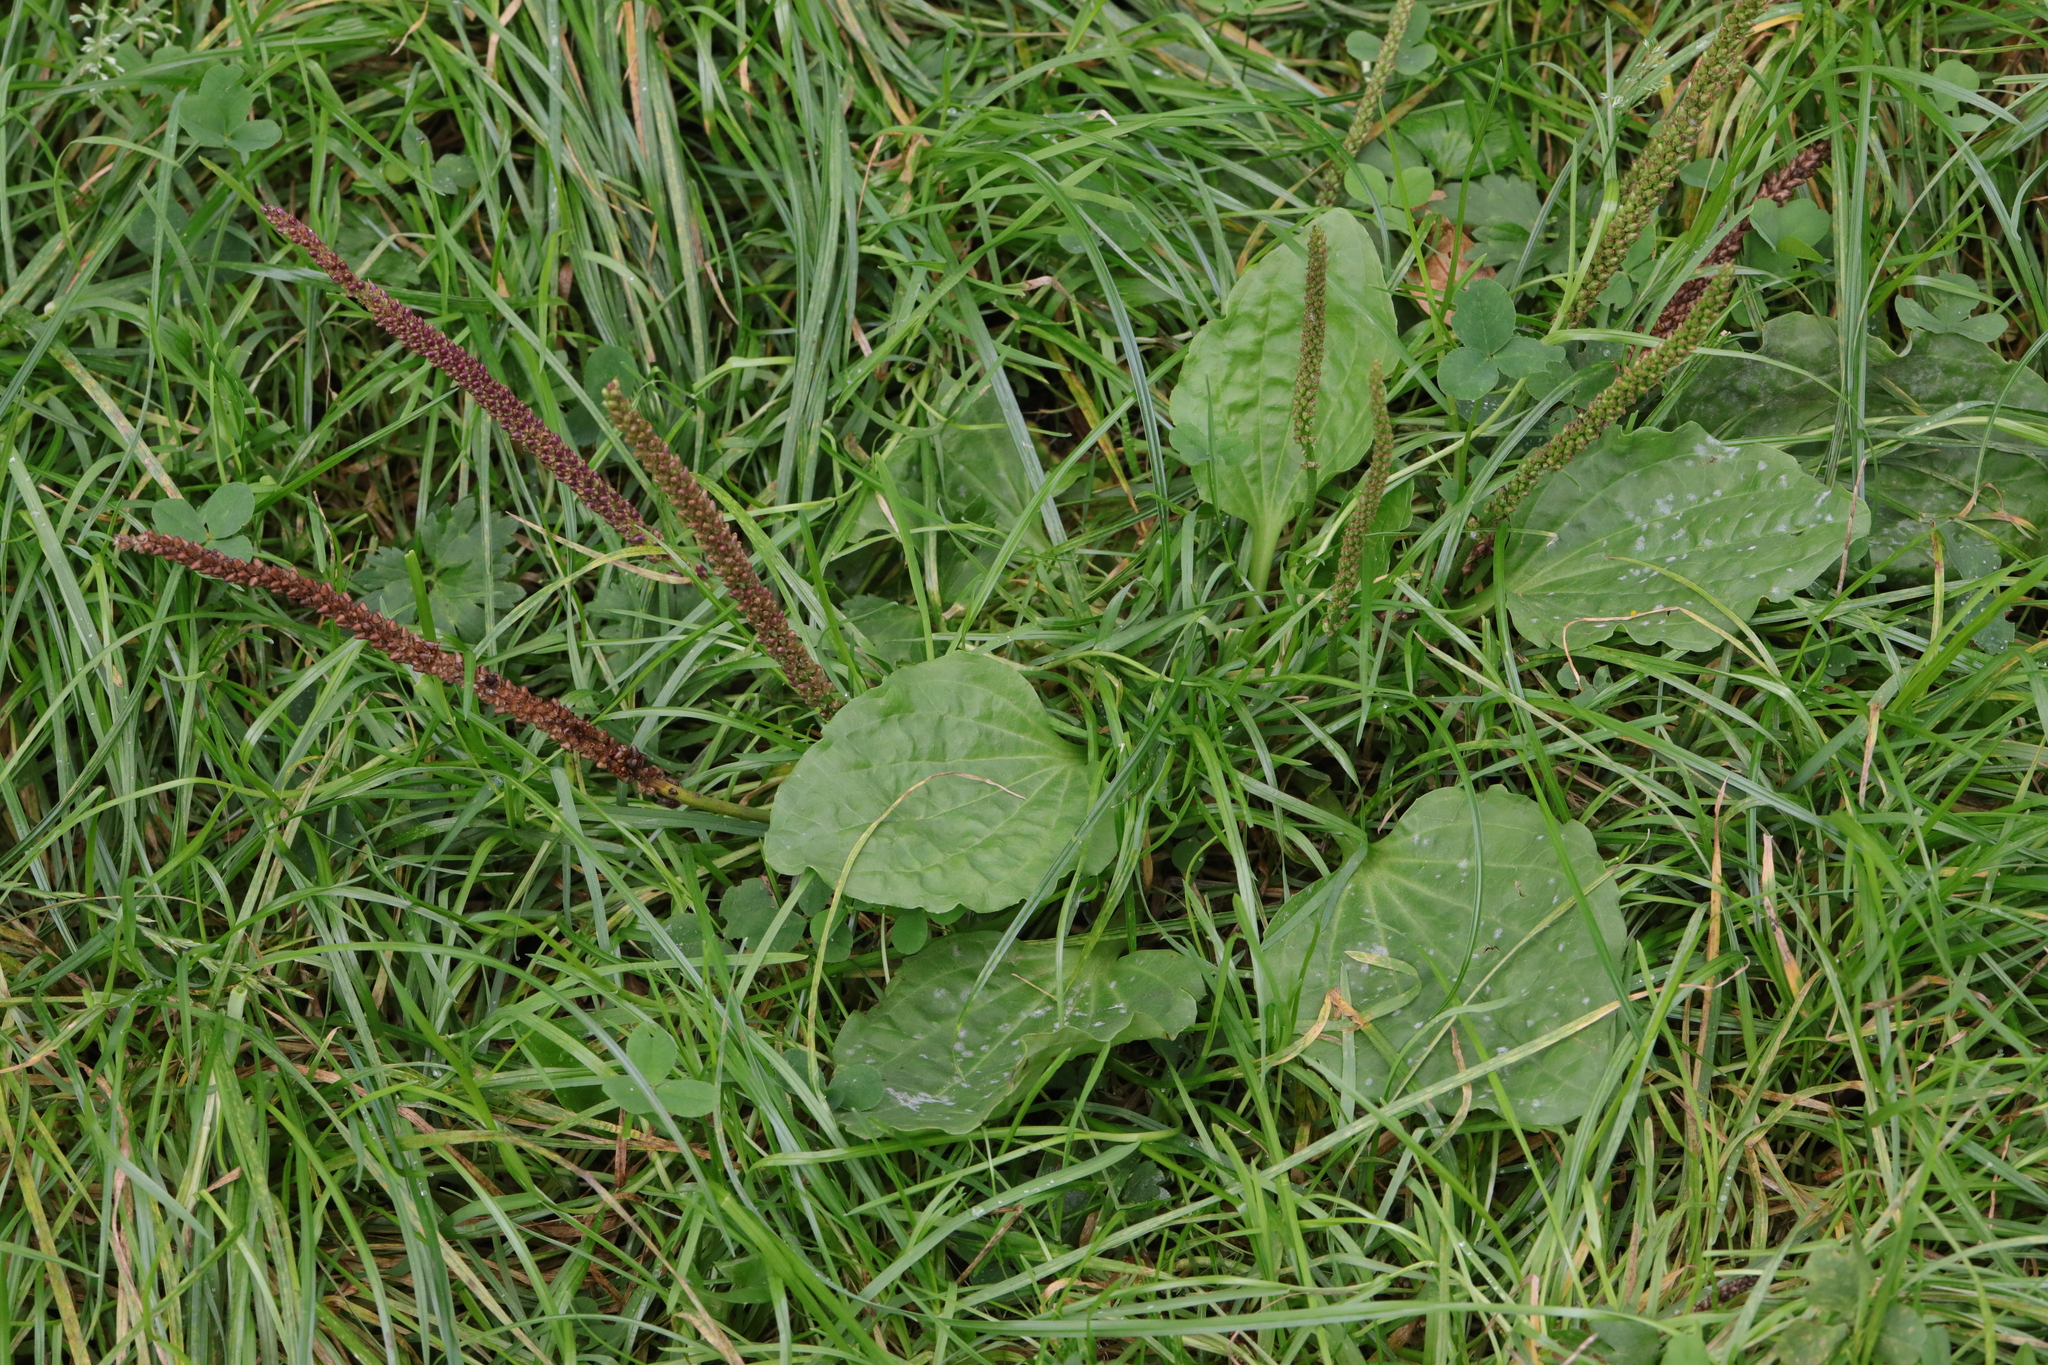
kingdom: Plantae
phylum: Tracheophyta
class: Magnoliopsida
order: Lamiales
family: Plantaginaceae
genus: Plantago
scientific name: Plantago major
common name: Common plantain
